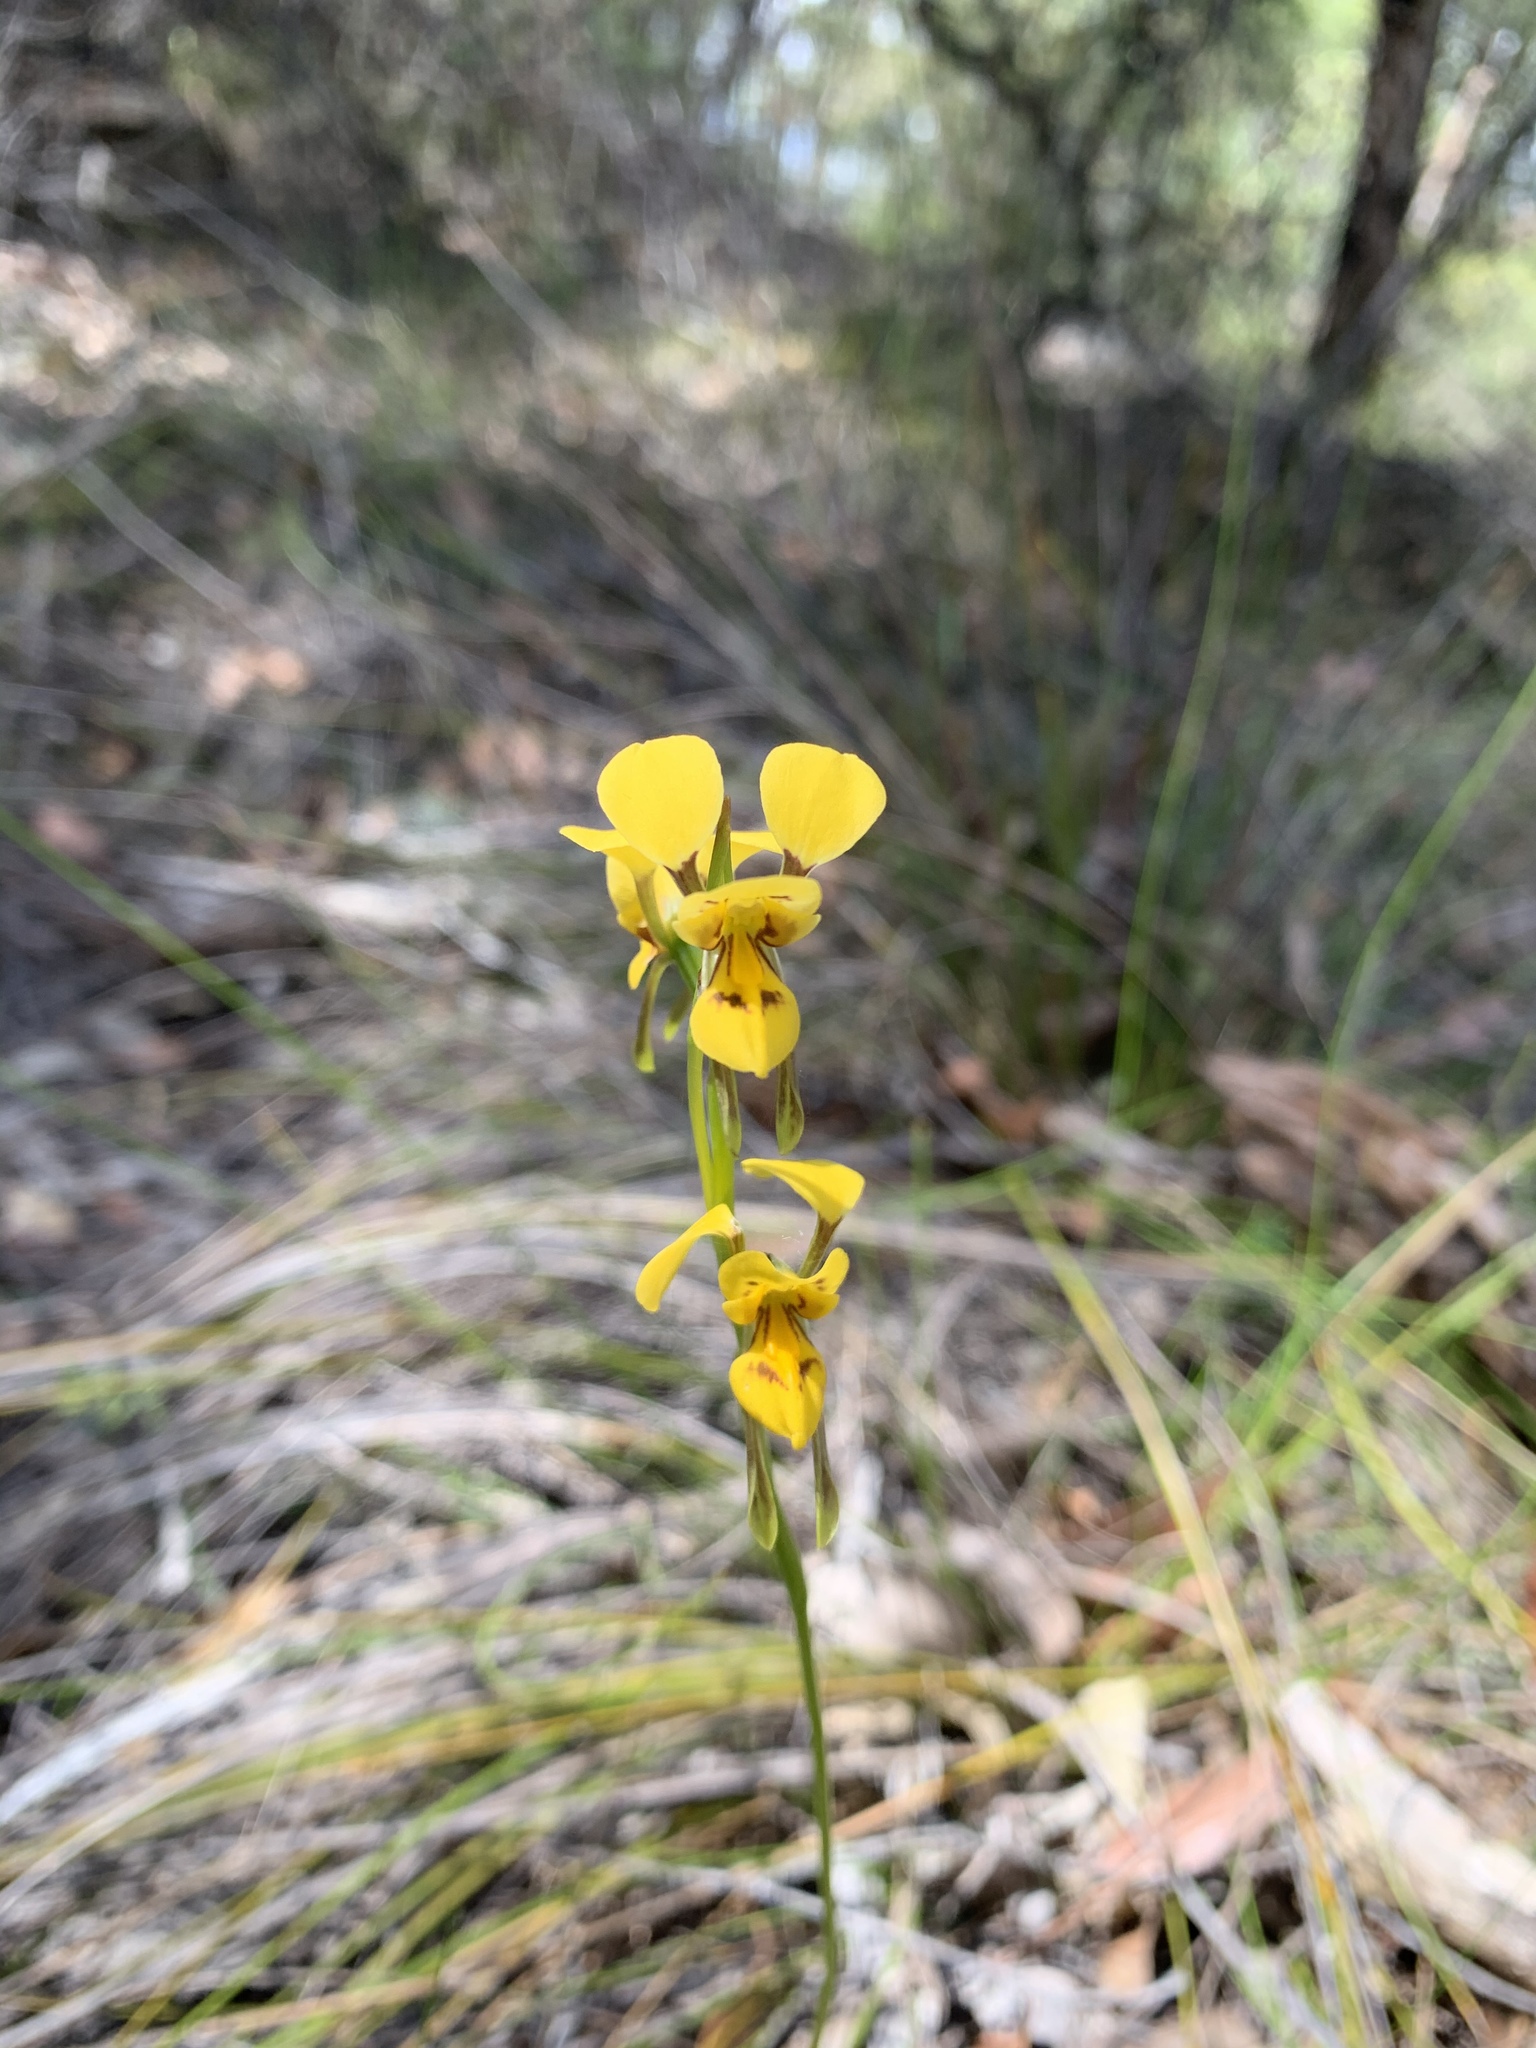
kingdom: Plantae
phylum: Tracheophyta
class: Liliopsida
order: Asparagales
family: Orchidaceae
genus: Diuris
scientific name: Diuris aurea
